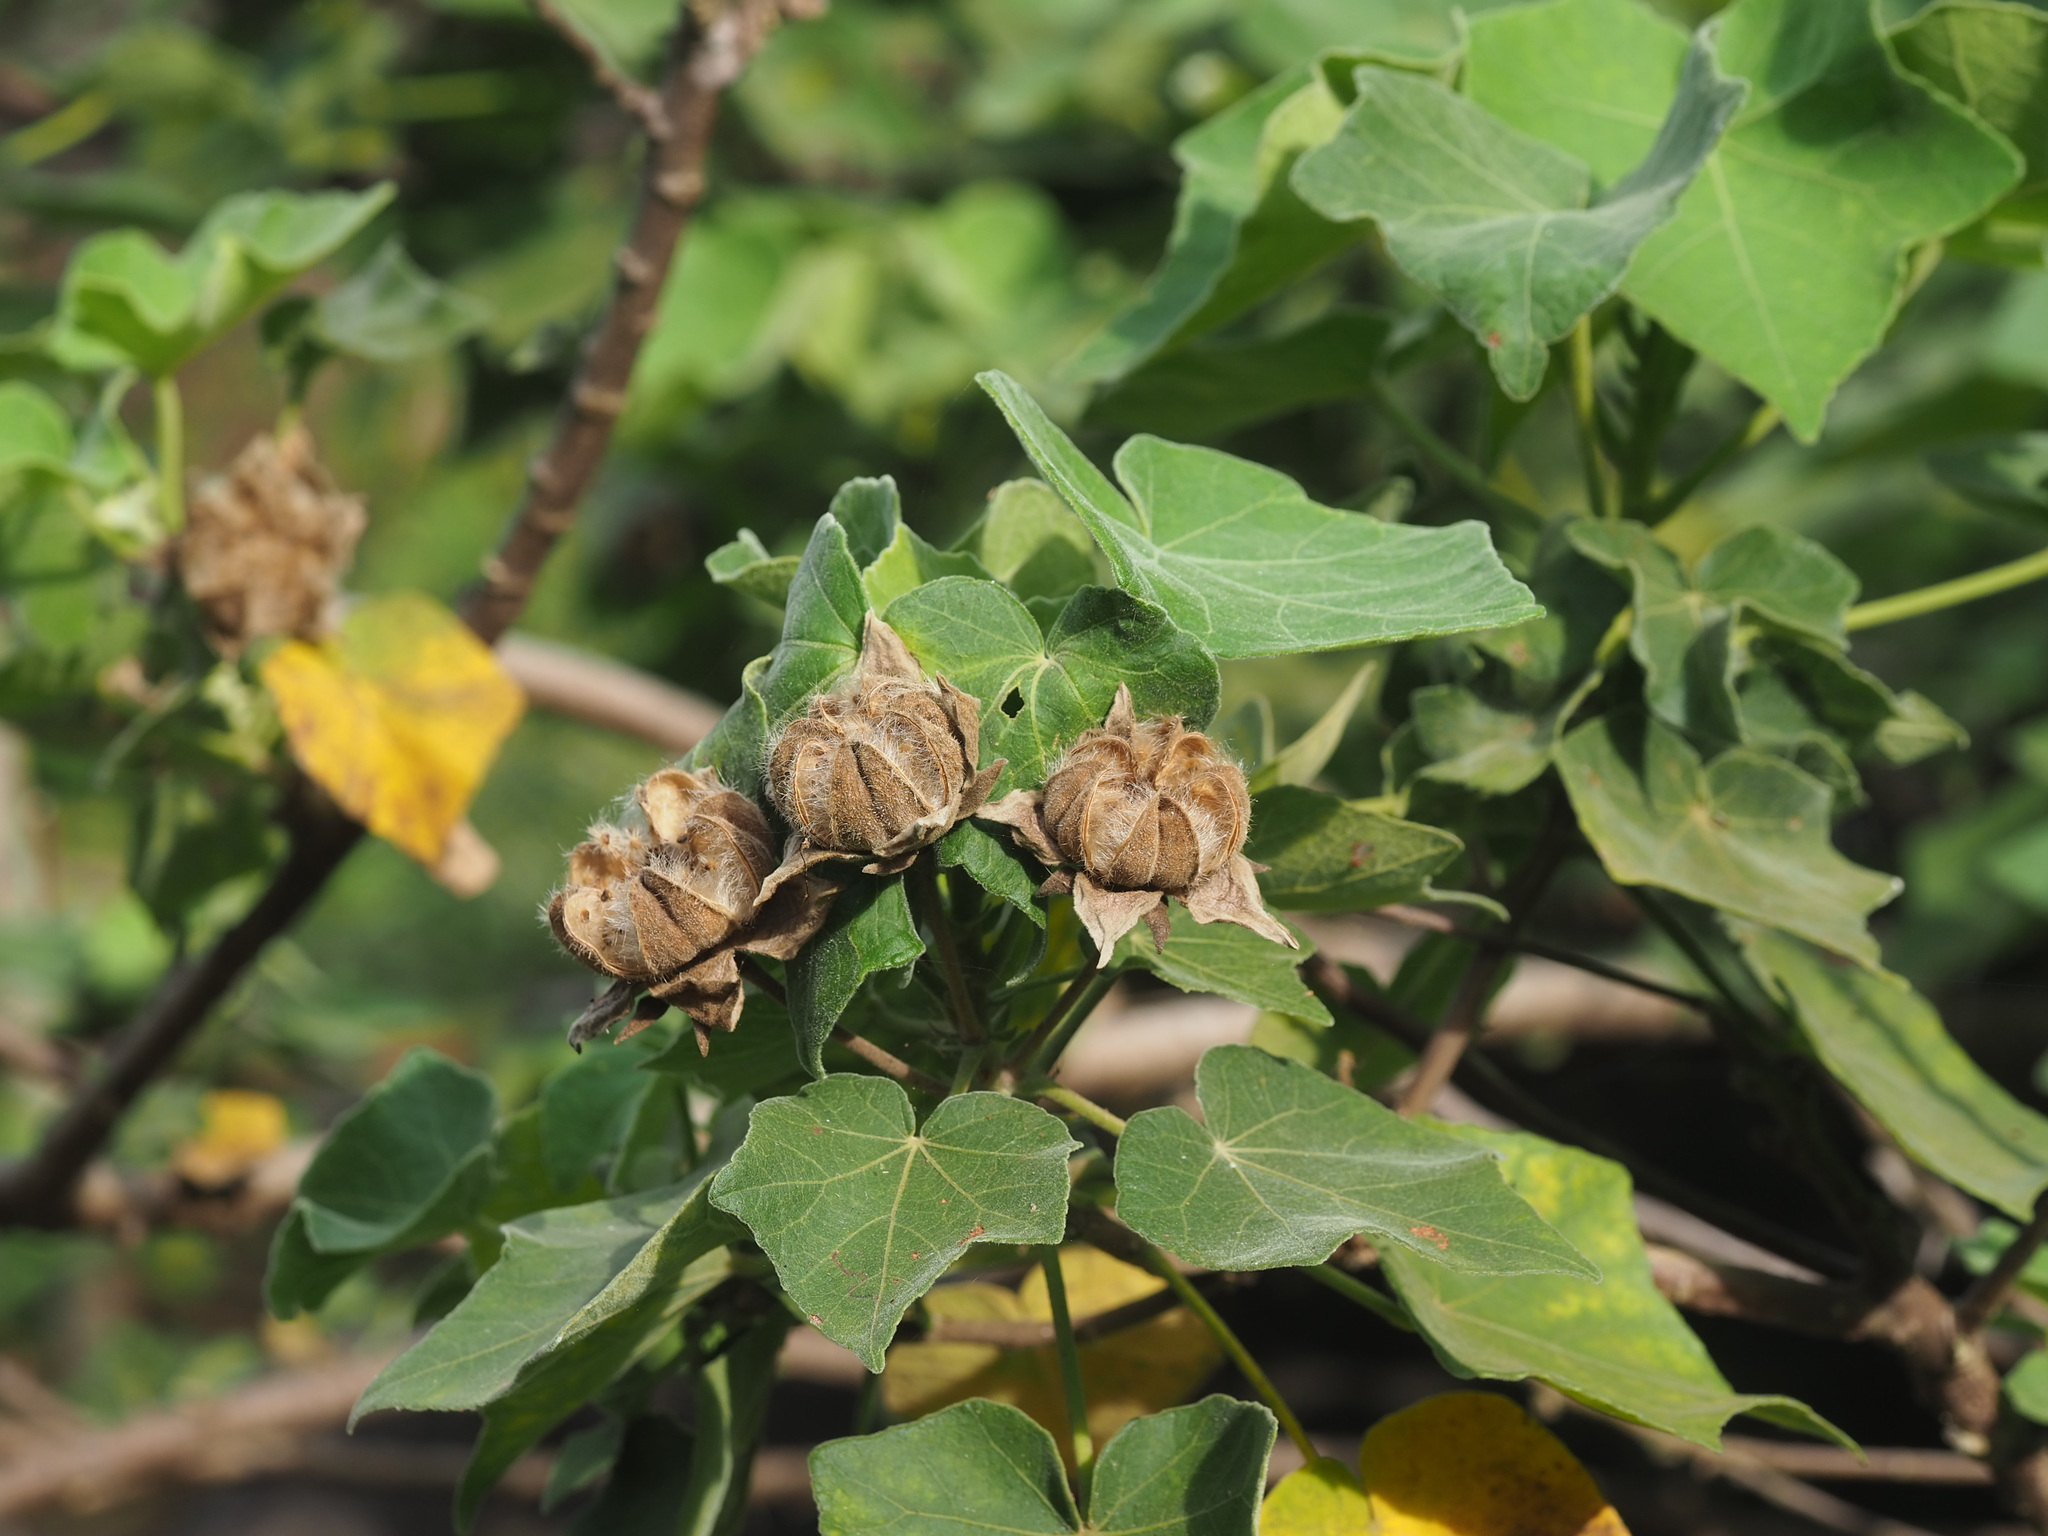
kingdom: Plantae
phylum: Tracheophyta
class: Magnoliopsida
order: Malvales
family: Malvaceae
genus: Hibiscus
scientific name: Hibiscus taiwanensis
